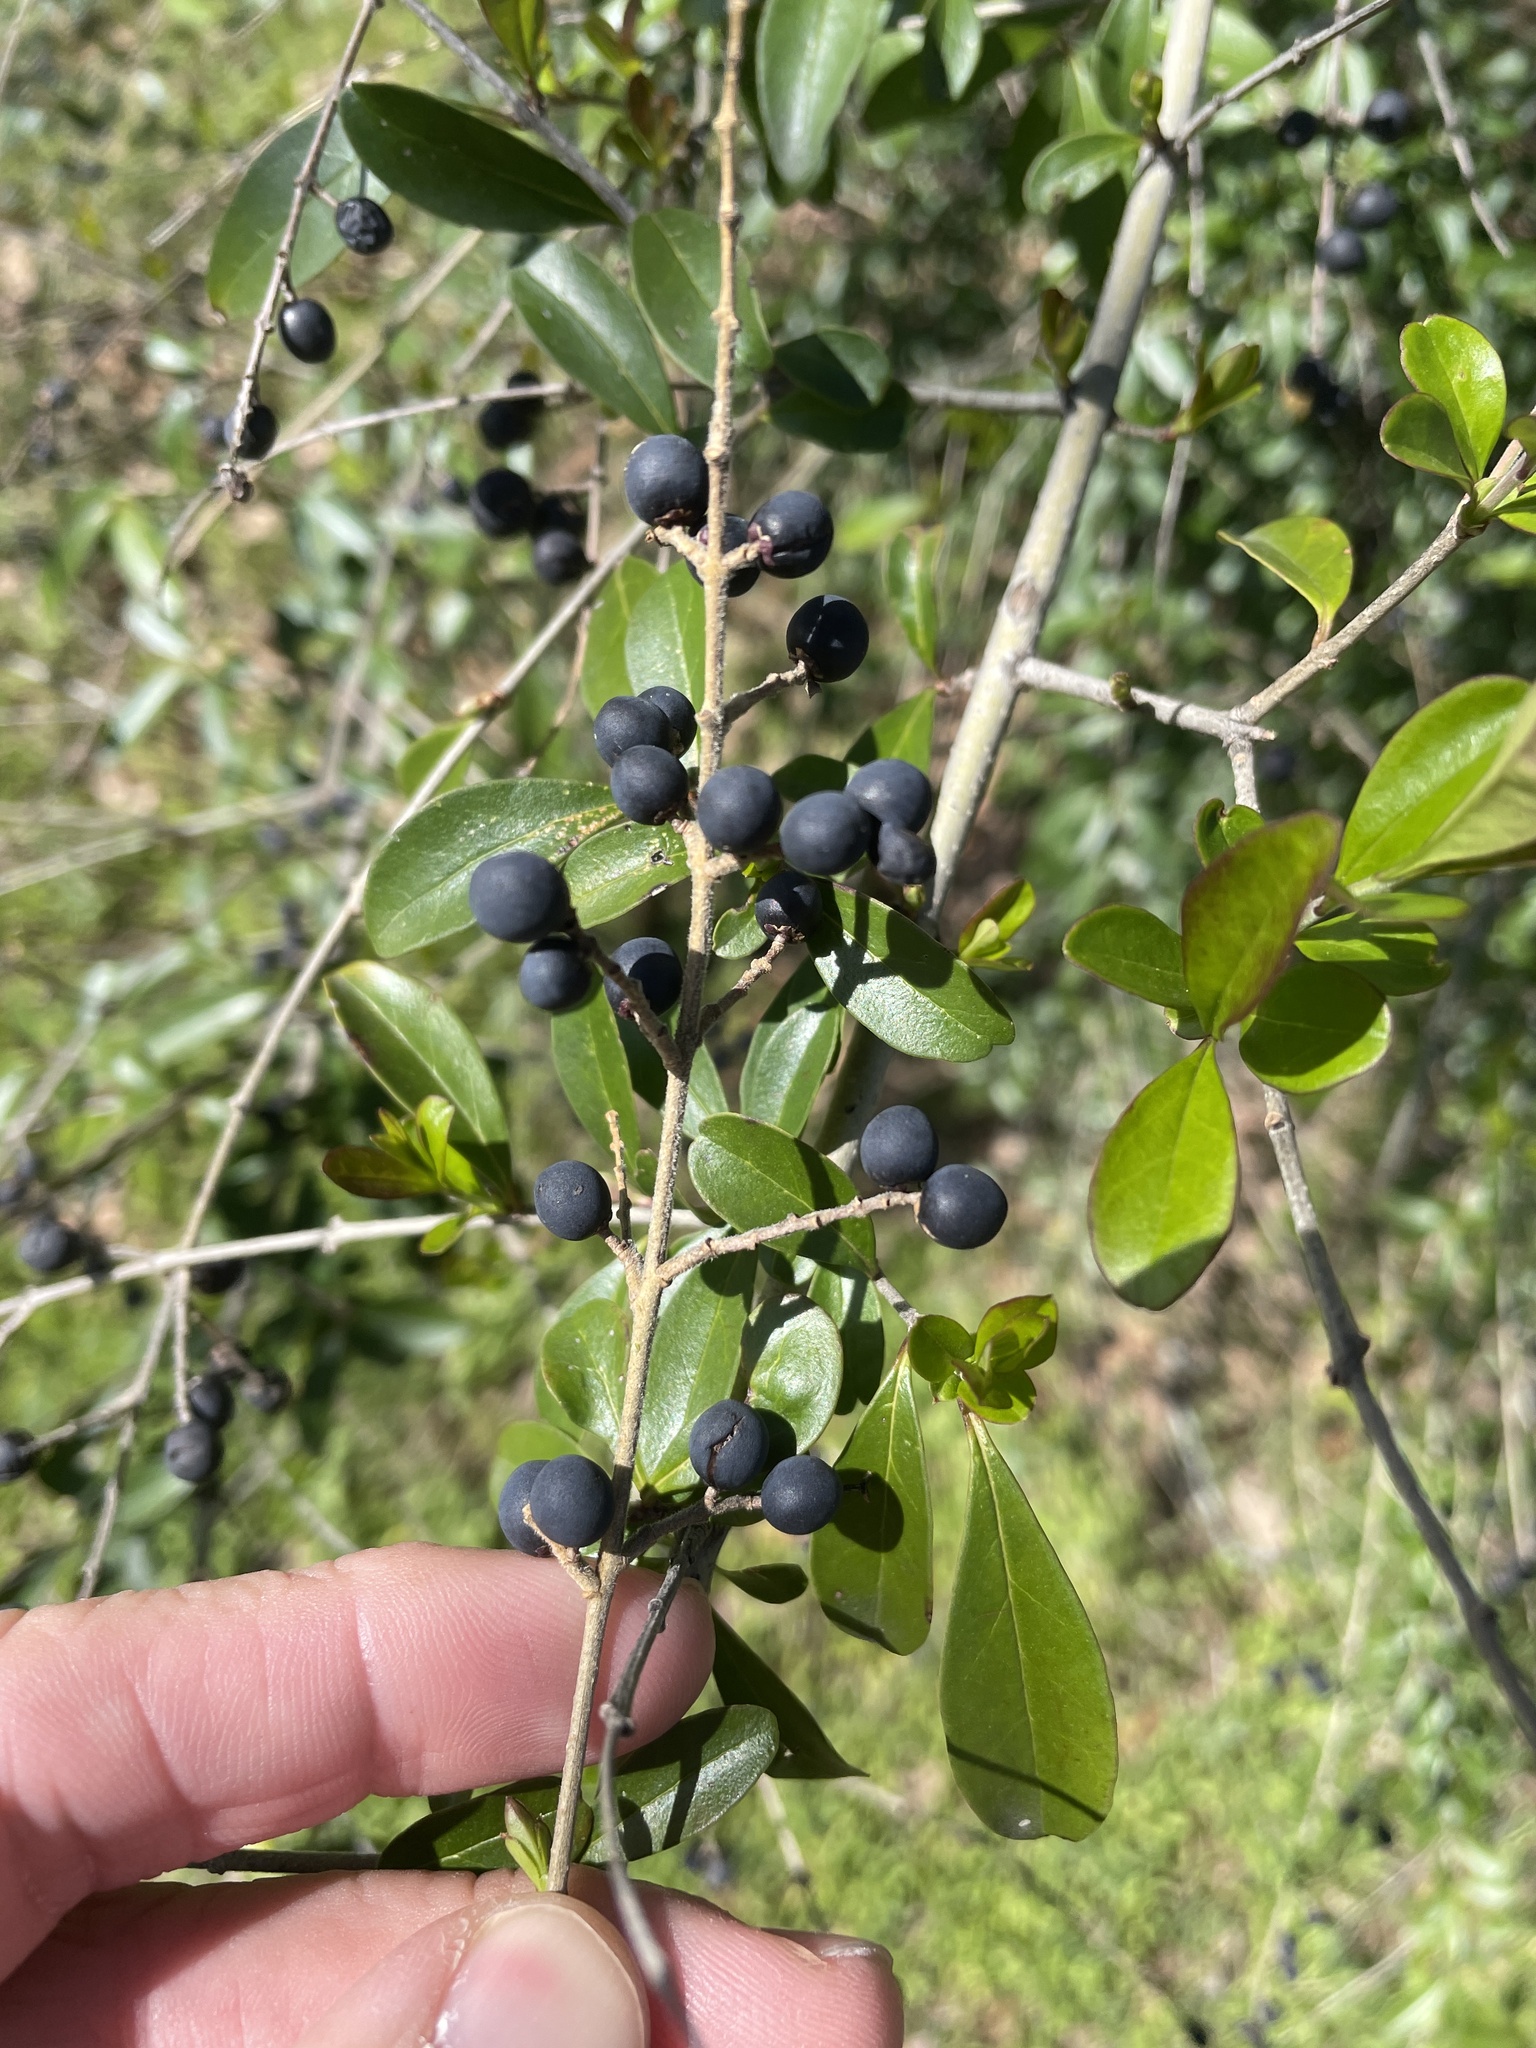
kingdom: Plantae
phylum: Tracheophyta
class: Magnoliopsida
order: Lamiales
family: Oleaceae
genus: Ligustrum
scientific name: Ligustrum quihoui
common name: Waxyleaf privet
